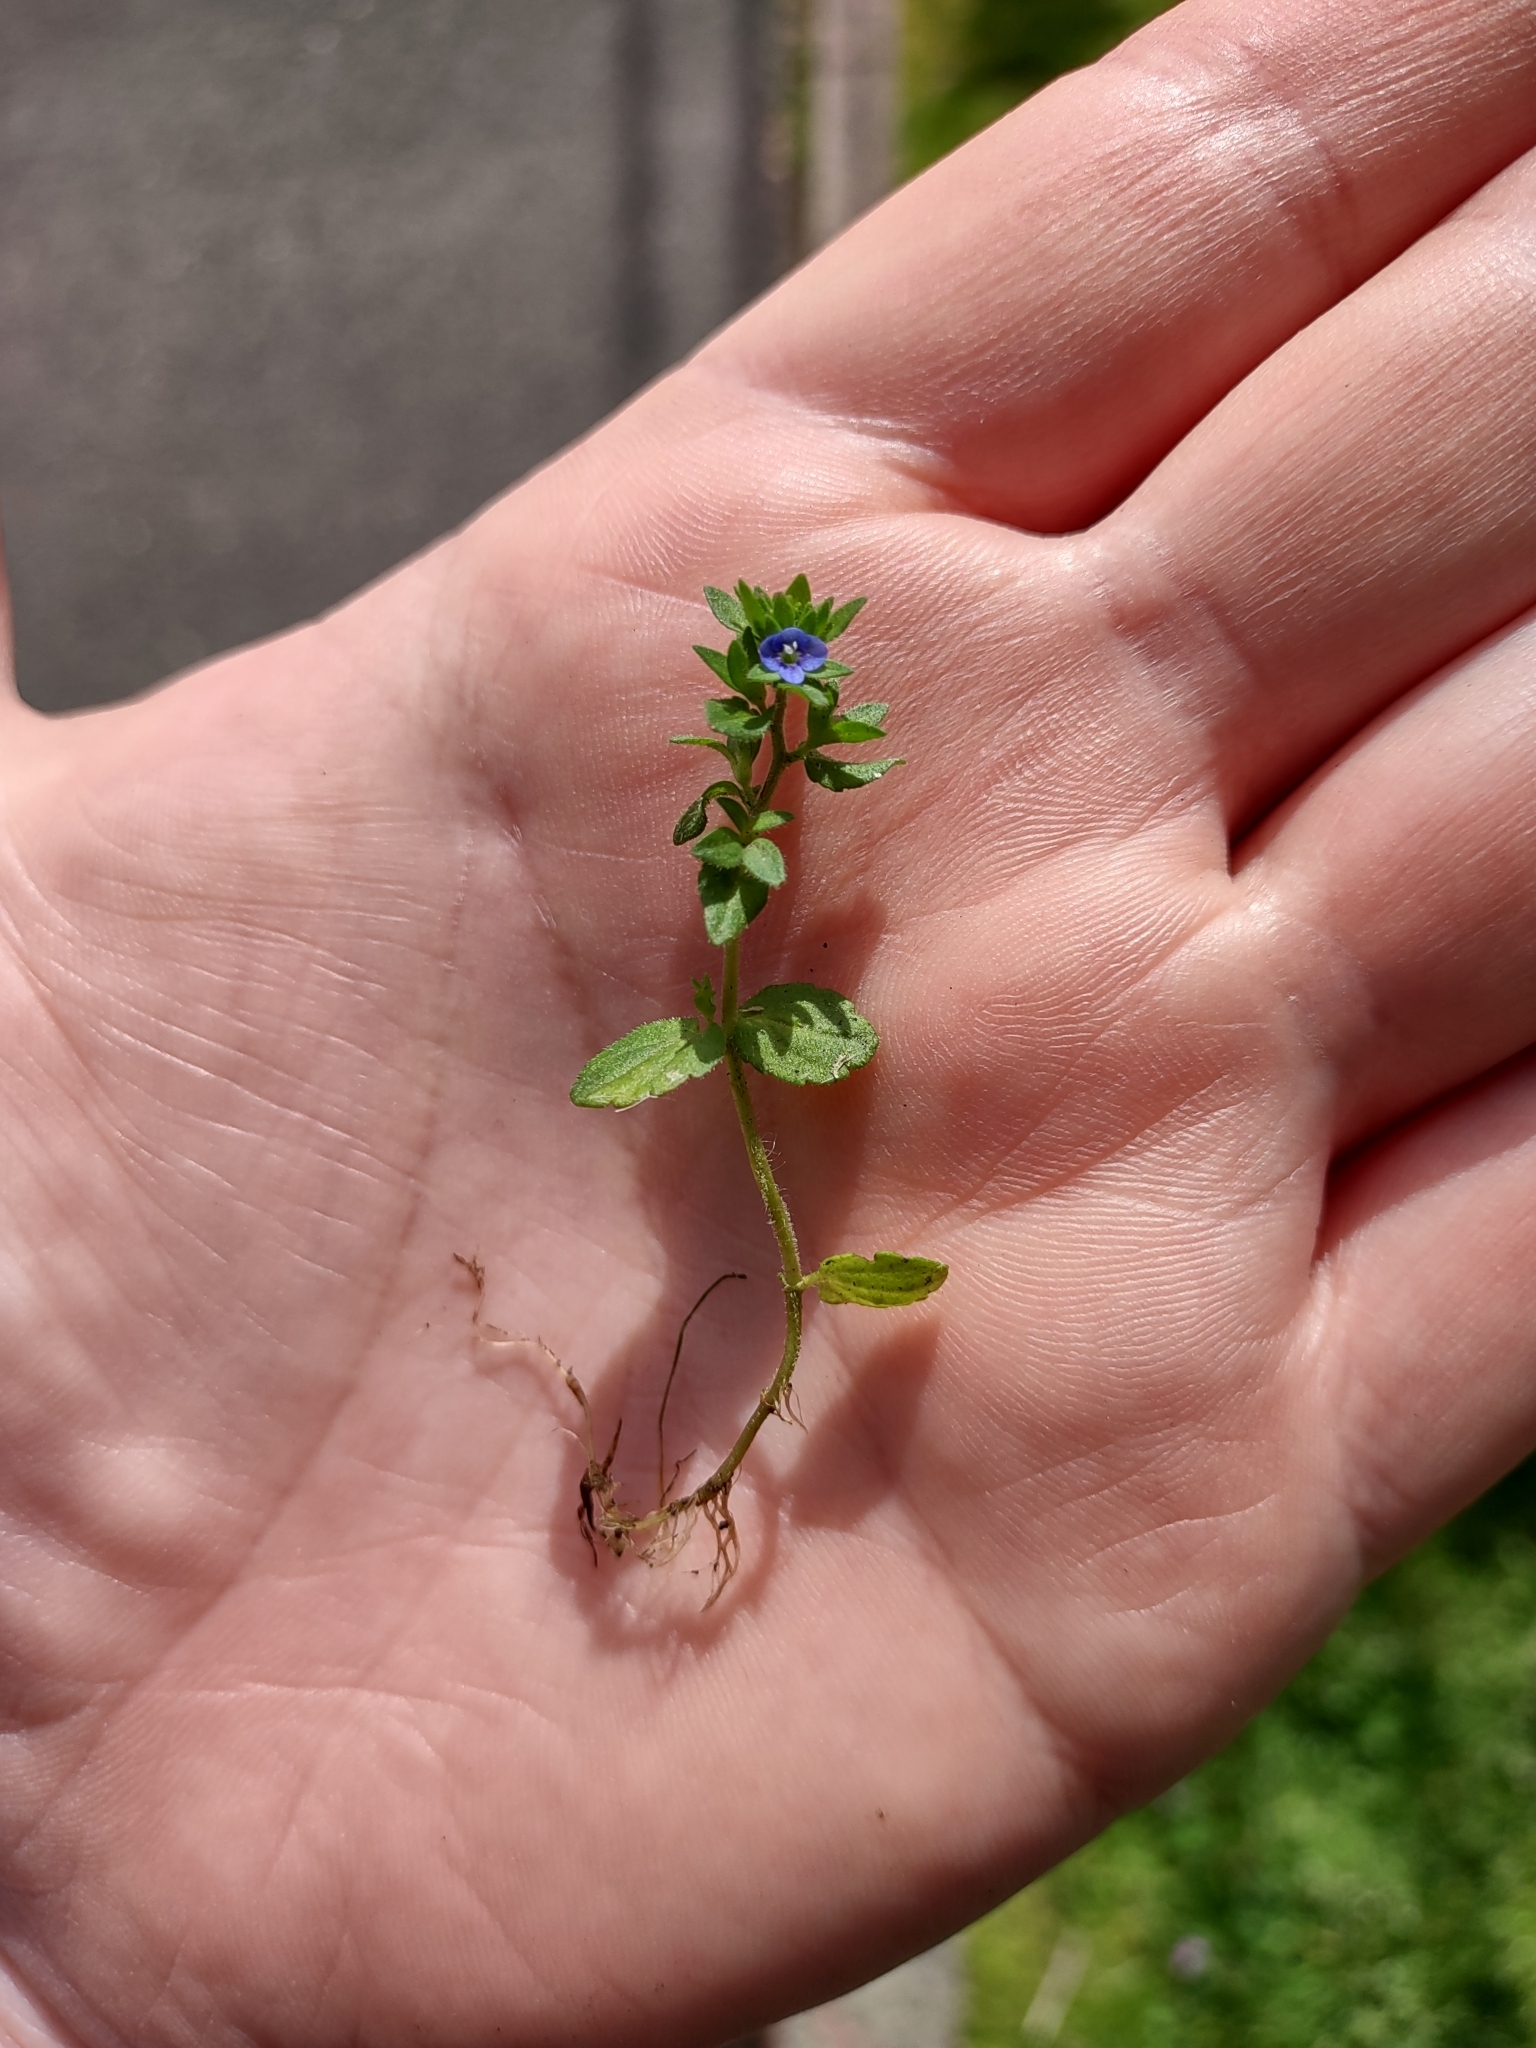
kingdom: Plantae
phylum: Tracheophyta
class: Magnoliopsida
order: Lamiales
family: Plantaginaceae
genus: Veronica
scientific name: Veronica arvensis
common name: Corn speedwell
